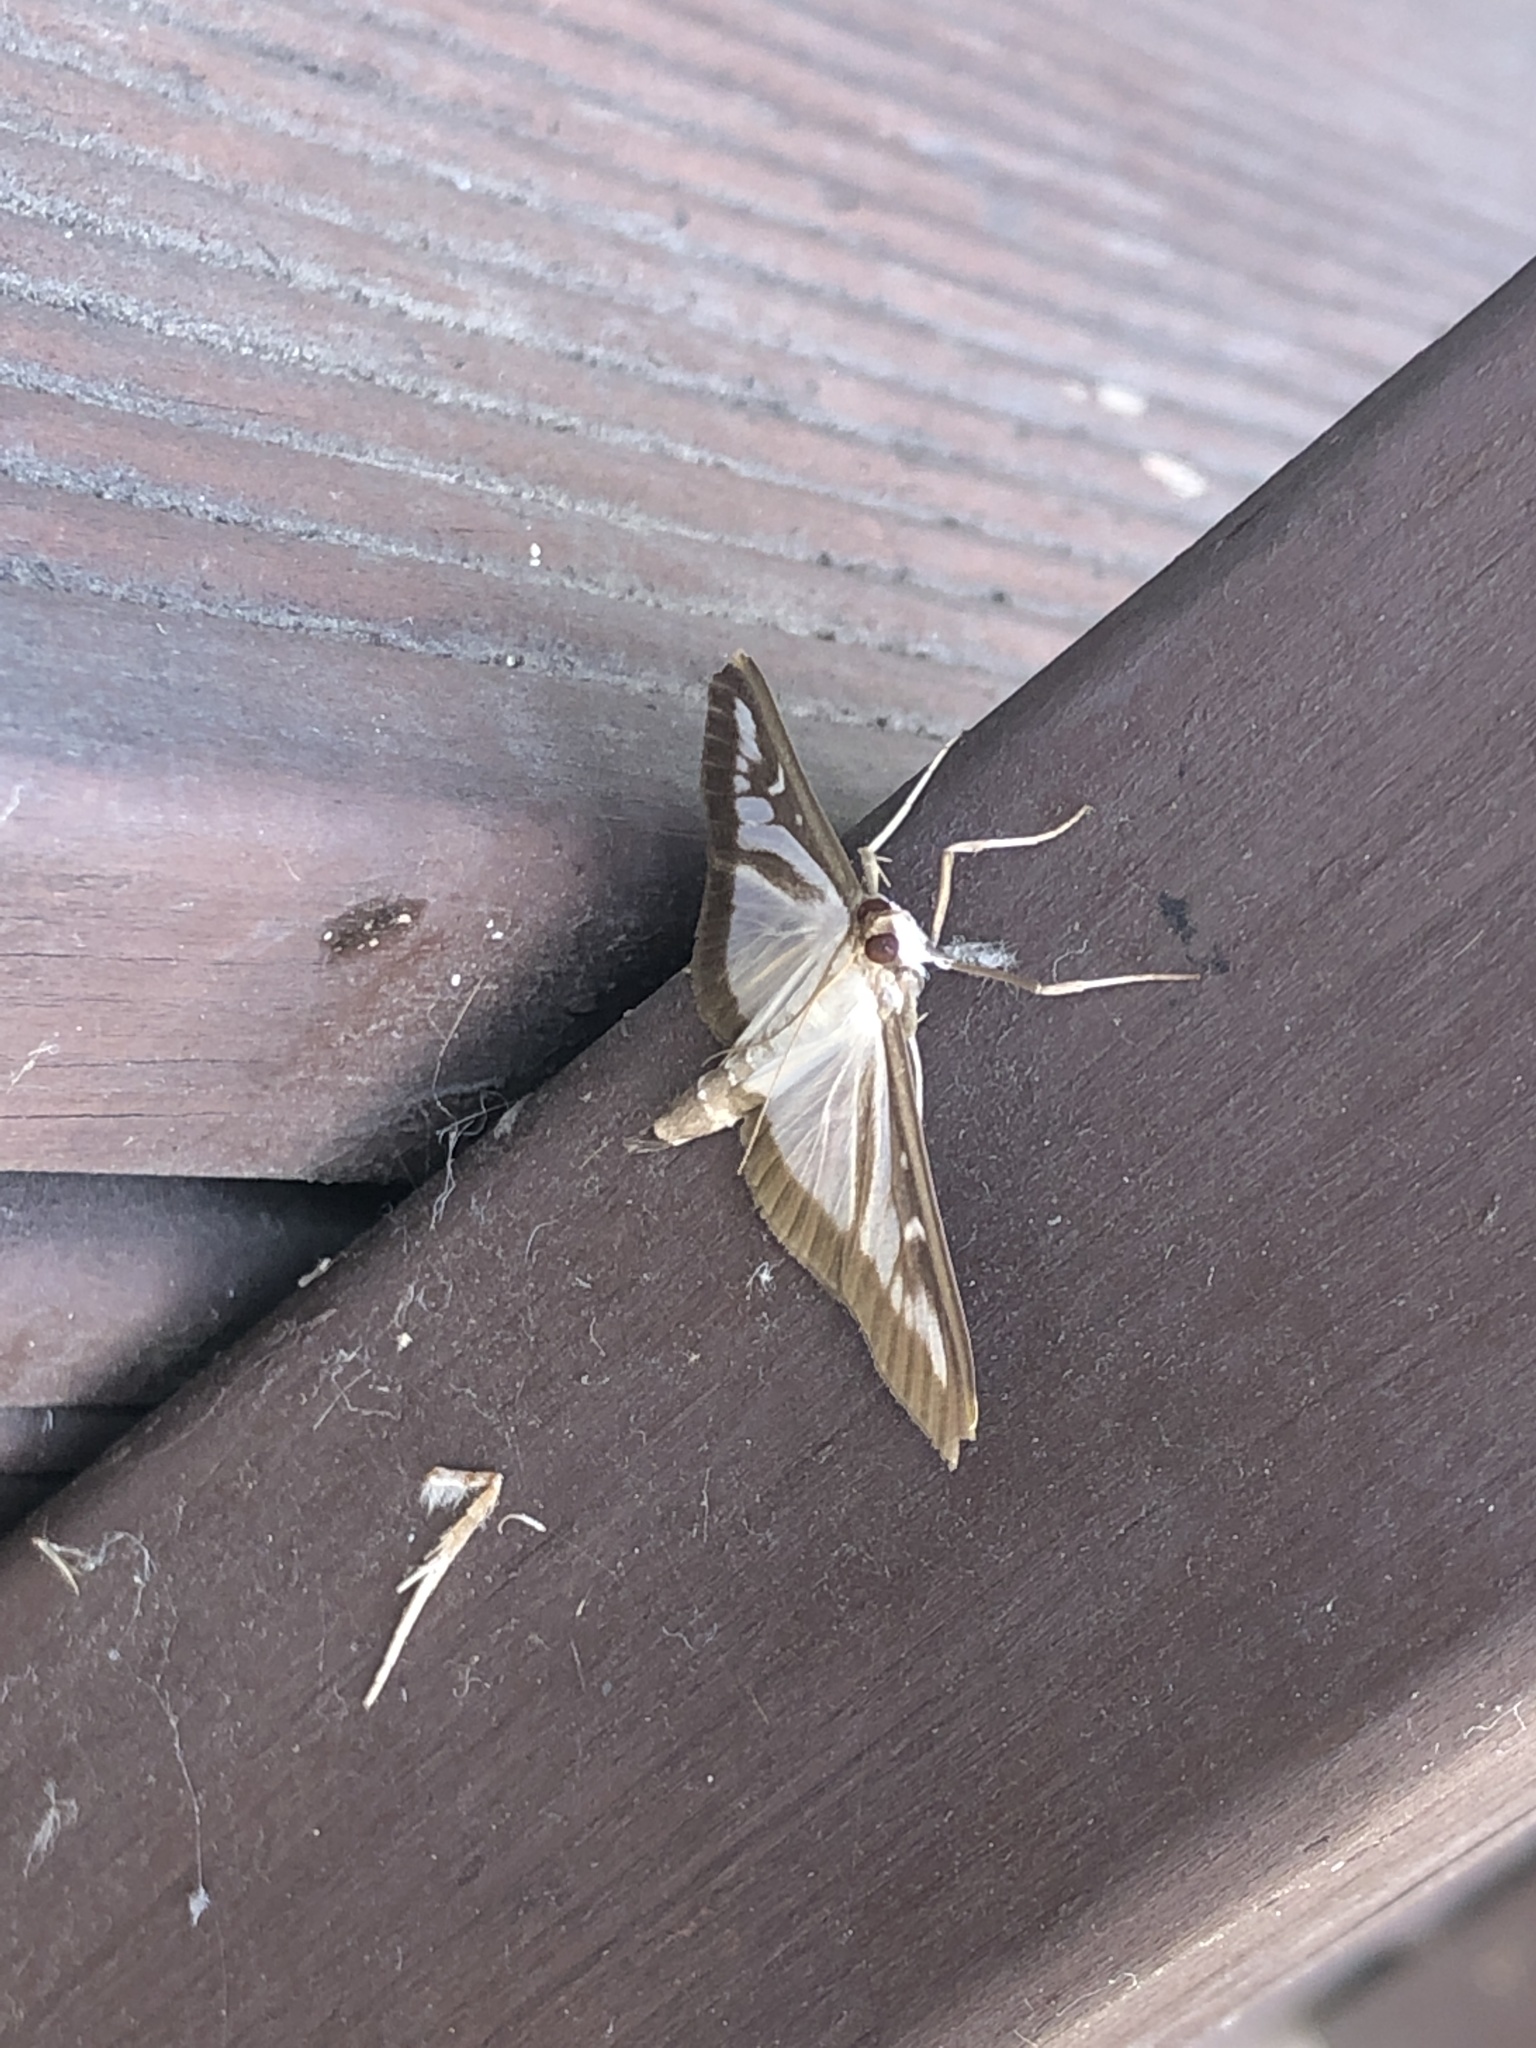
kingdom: Animalia
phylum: Arthropoda
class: Insecta
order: Lepidoptera
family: Crambidae
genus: Cydalima
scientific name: Cydalima perspectalis
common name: Box tree moth
